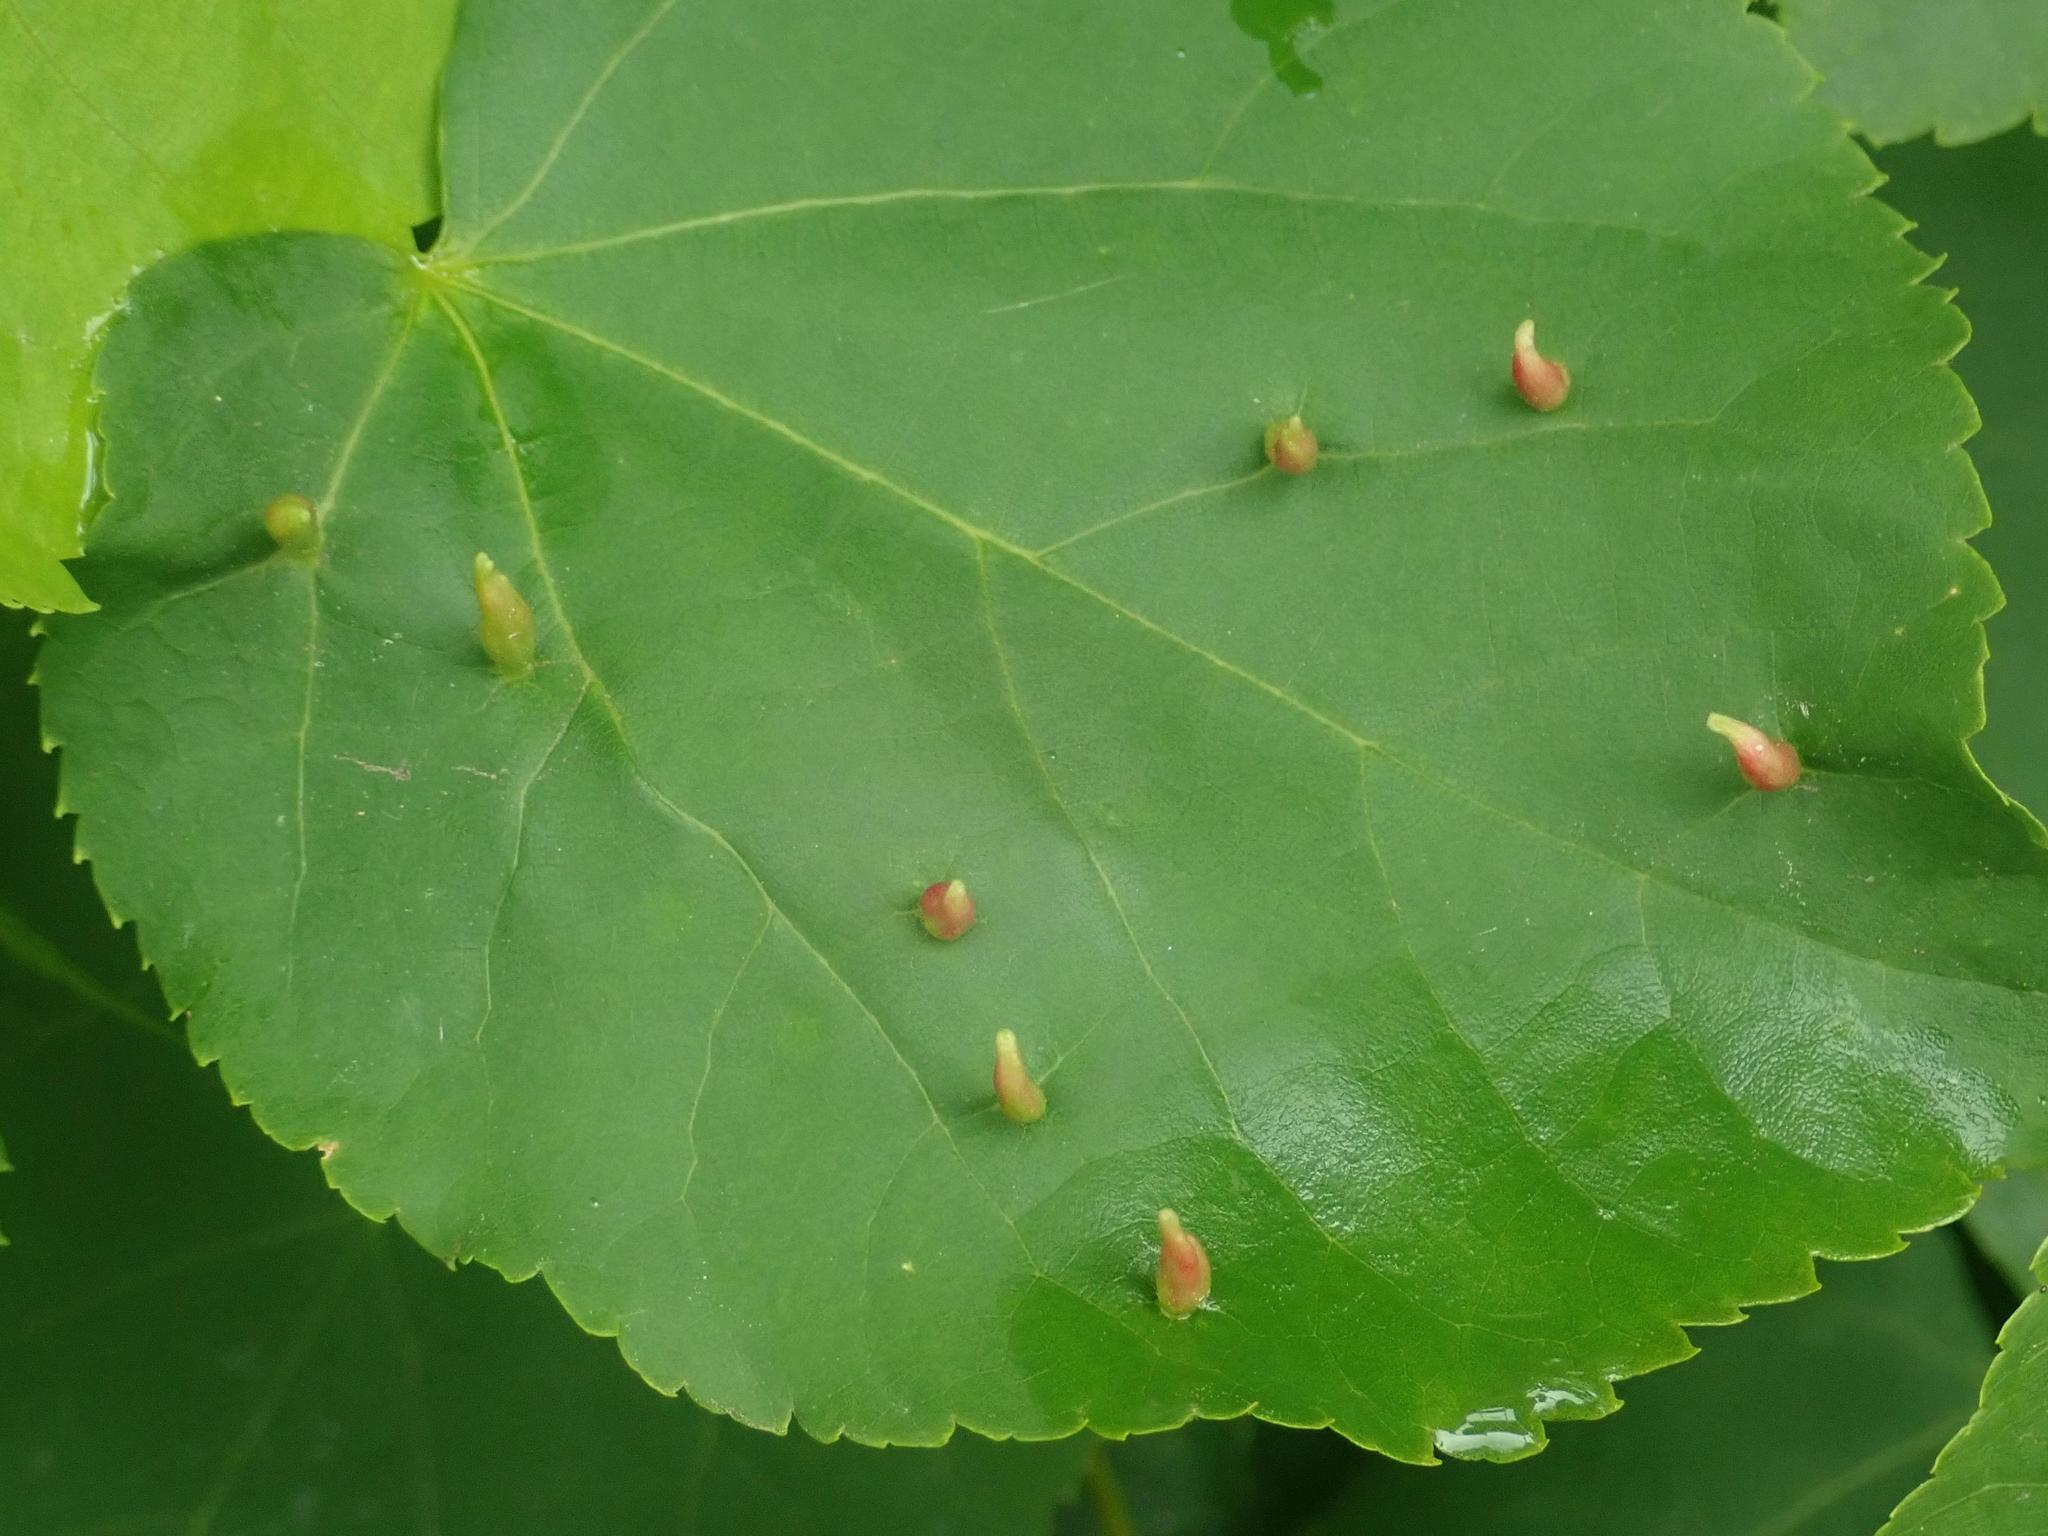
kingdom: Animalia
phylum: Arthropoda
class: Arachnida
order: Trombidiformes
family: Eriophyidae
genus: Eriophyes
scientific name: Eriophyes tiliae
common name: Red nail gall mite
